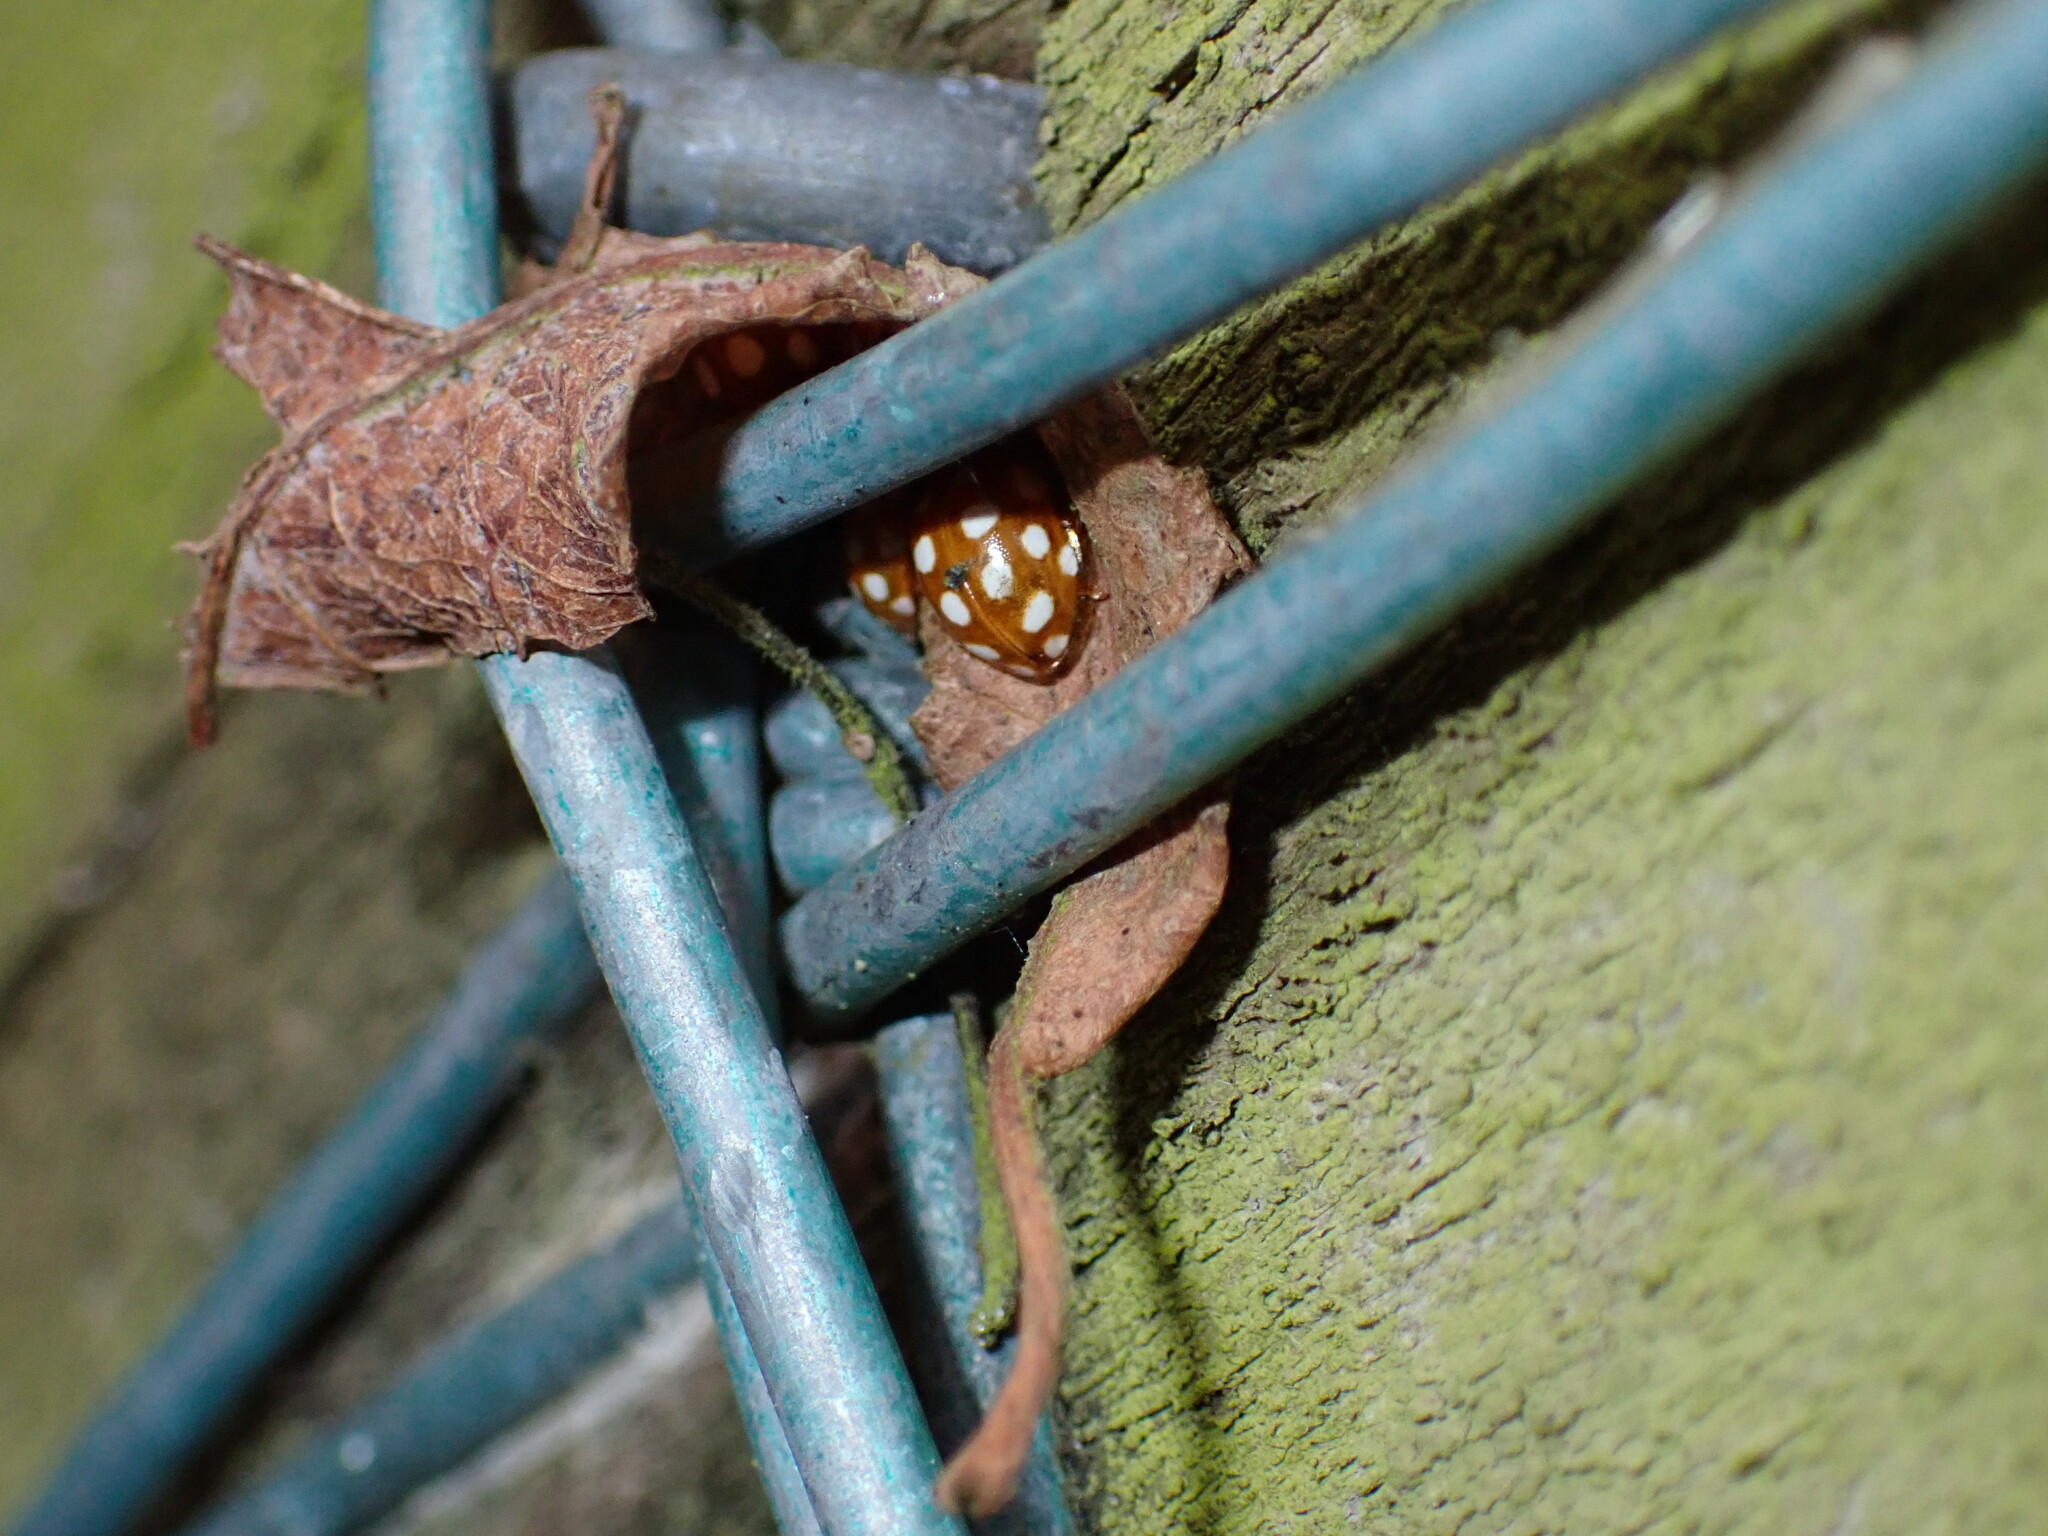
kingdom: Animalia
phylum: Arthropoda
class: Insecta
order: Coleoptera
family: Coccinellidae
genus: Halyzia
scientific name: Halyzia sedecimguttata
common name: Orange ladybird
